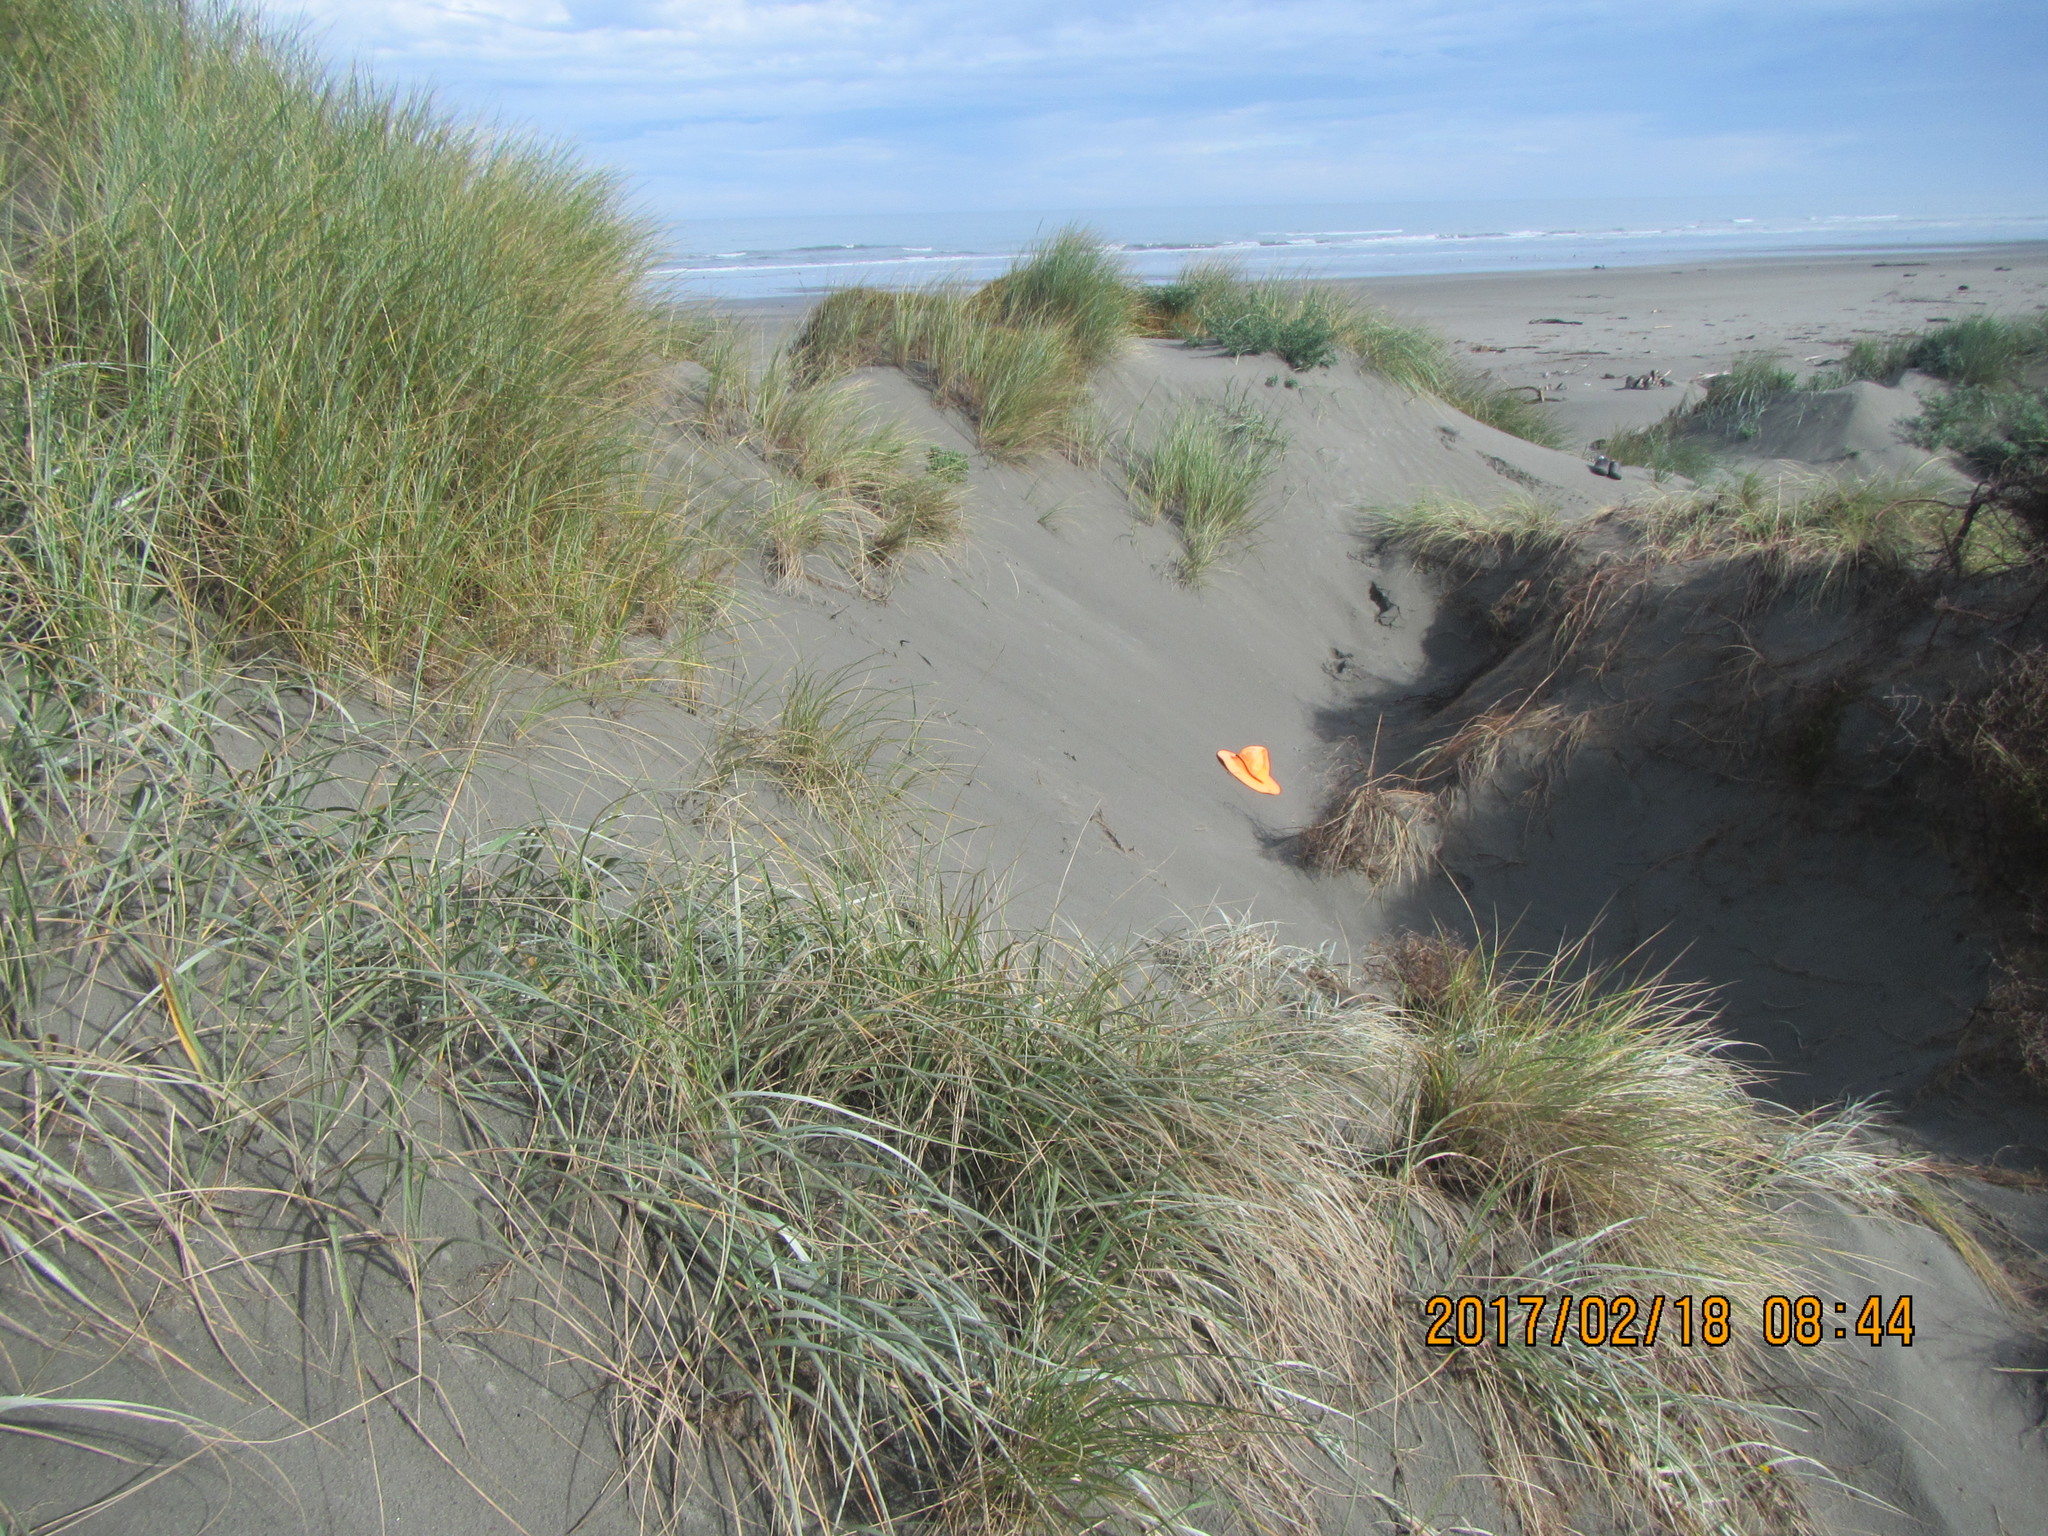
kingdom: Animalia
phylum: Arthropoda
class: Arachnida
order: Araneae
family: Lycosidae
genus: Anoteropsis
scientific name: Anoteropsis litoralis
